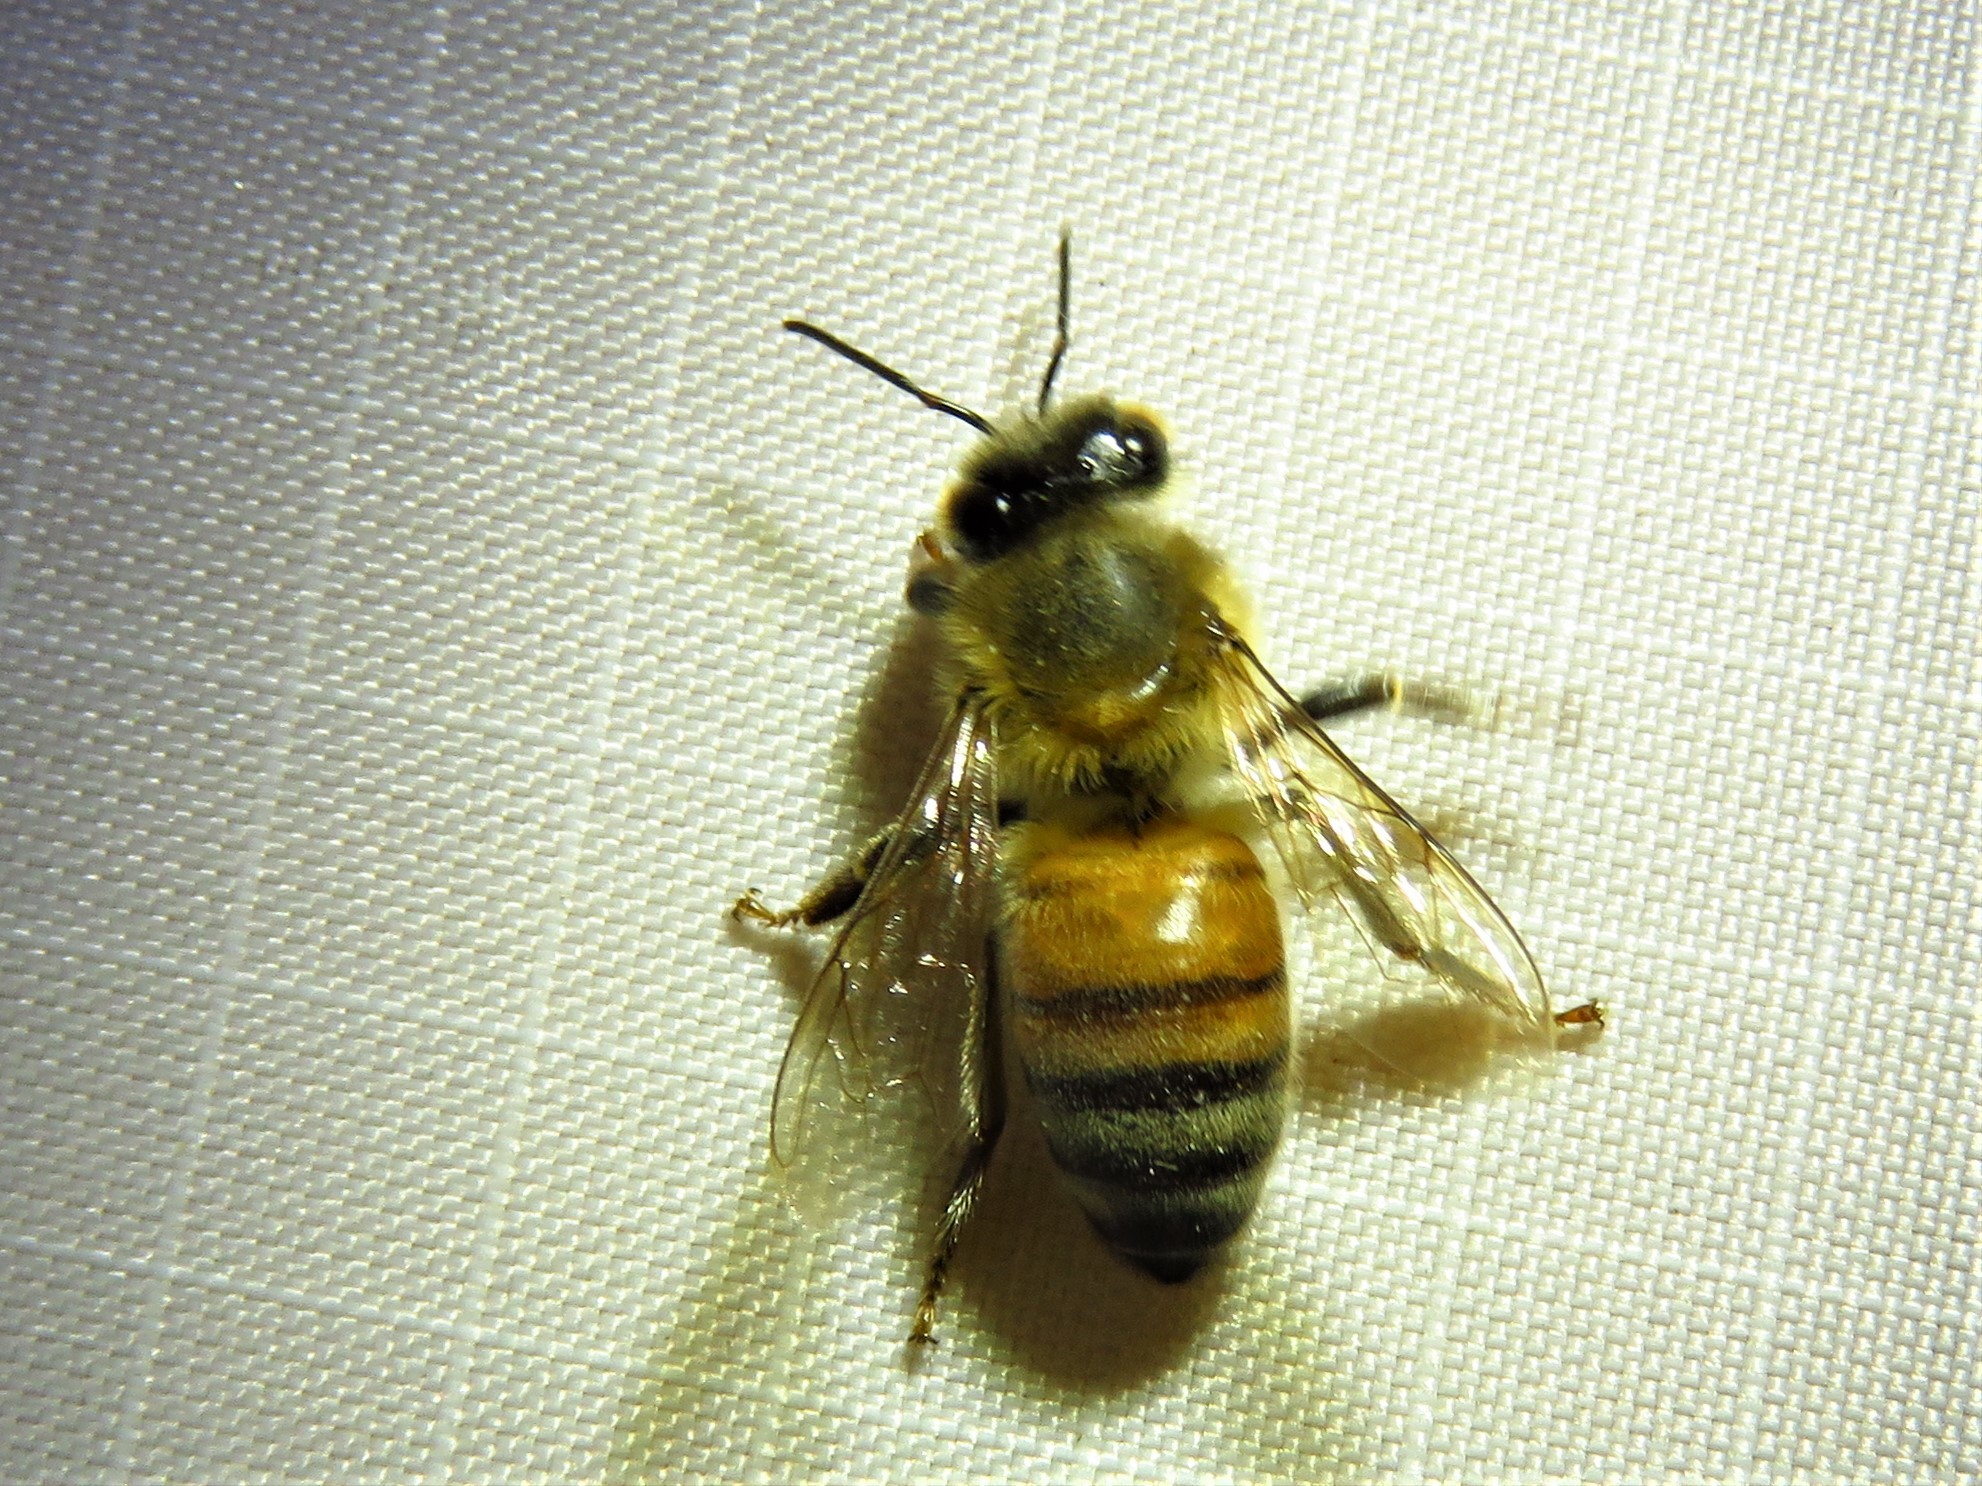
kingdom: Animalia
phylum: Arthropoda
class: Insecta
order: Hymenoptera
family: Apidae
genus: Apis
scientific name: Apis mellifera
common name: Honey bee
